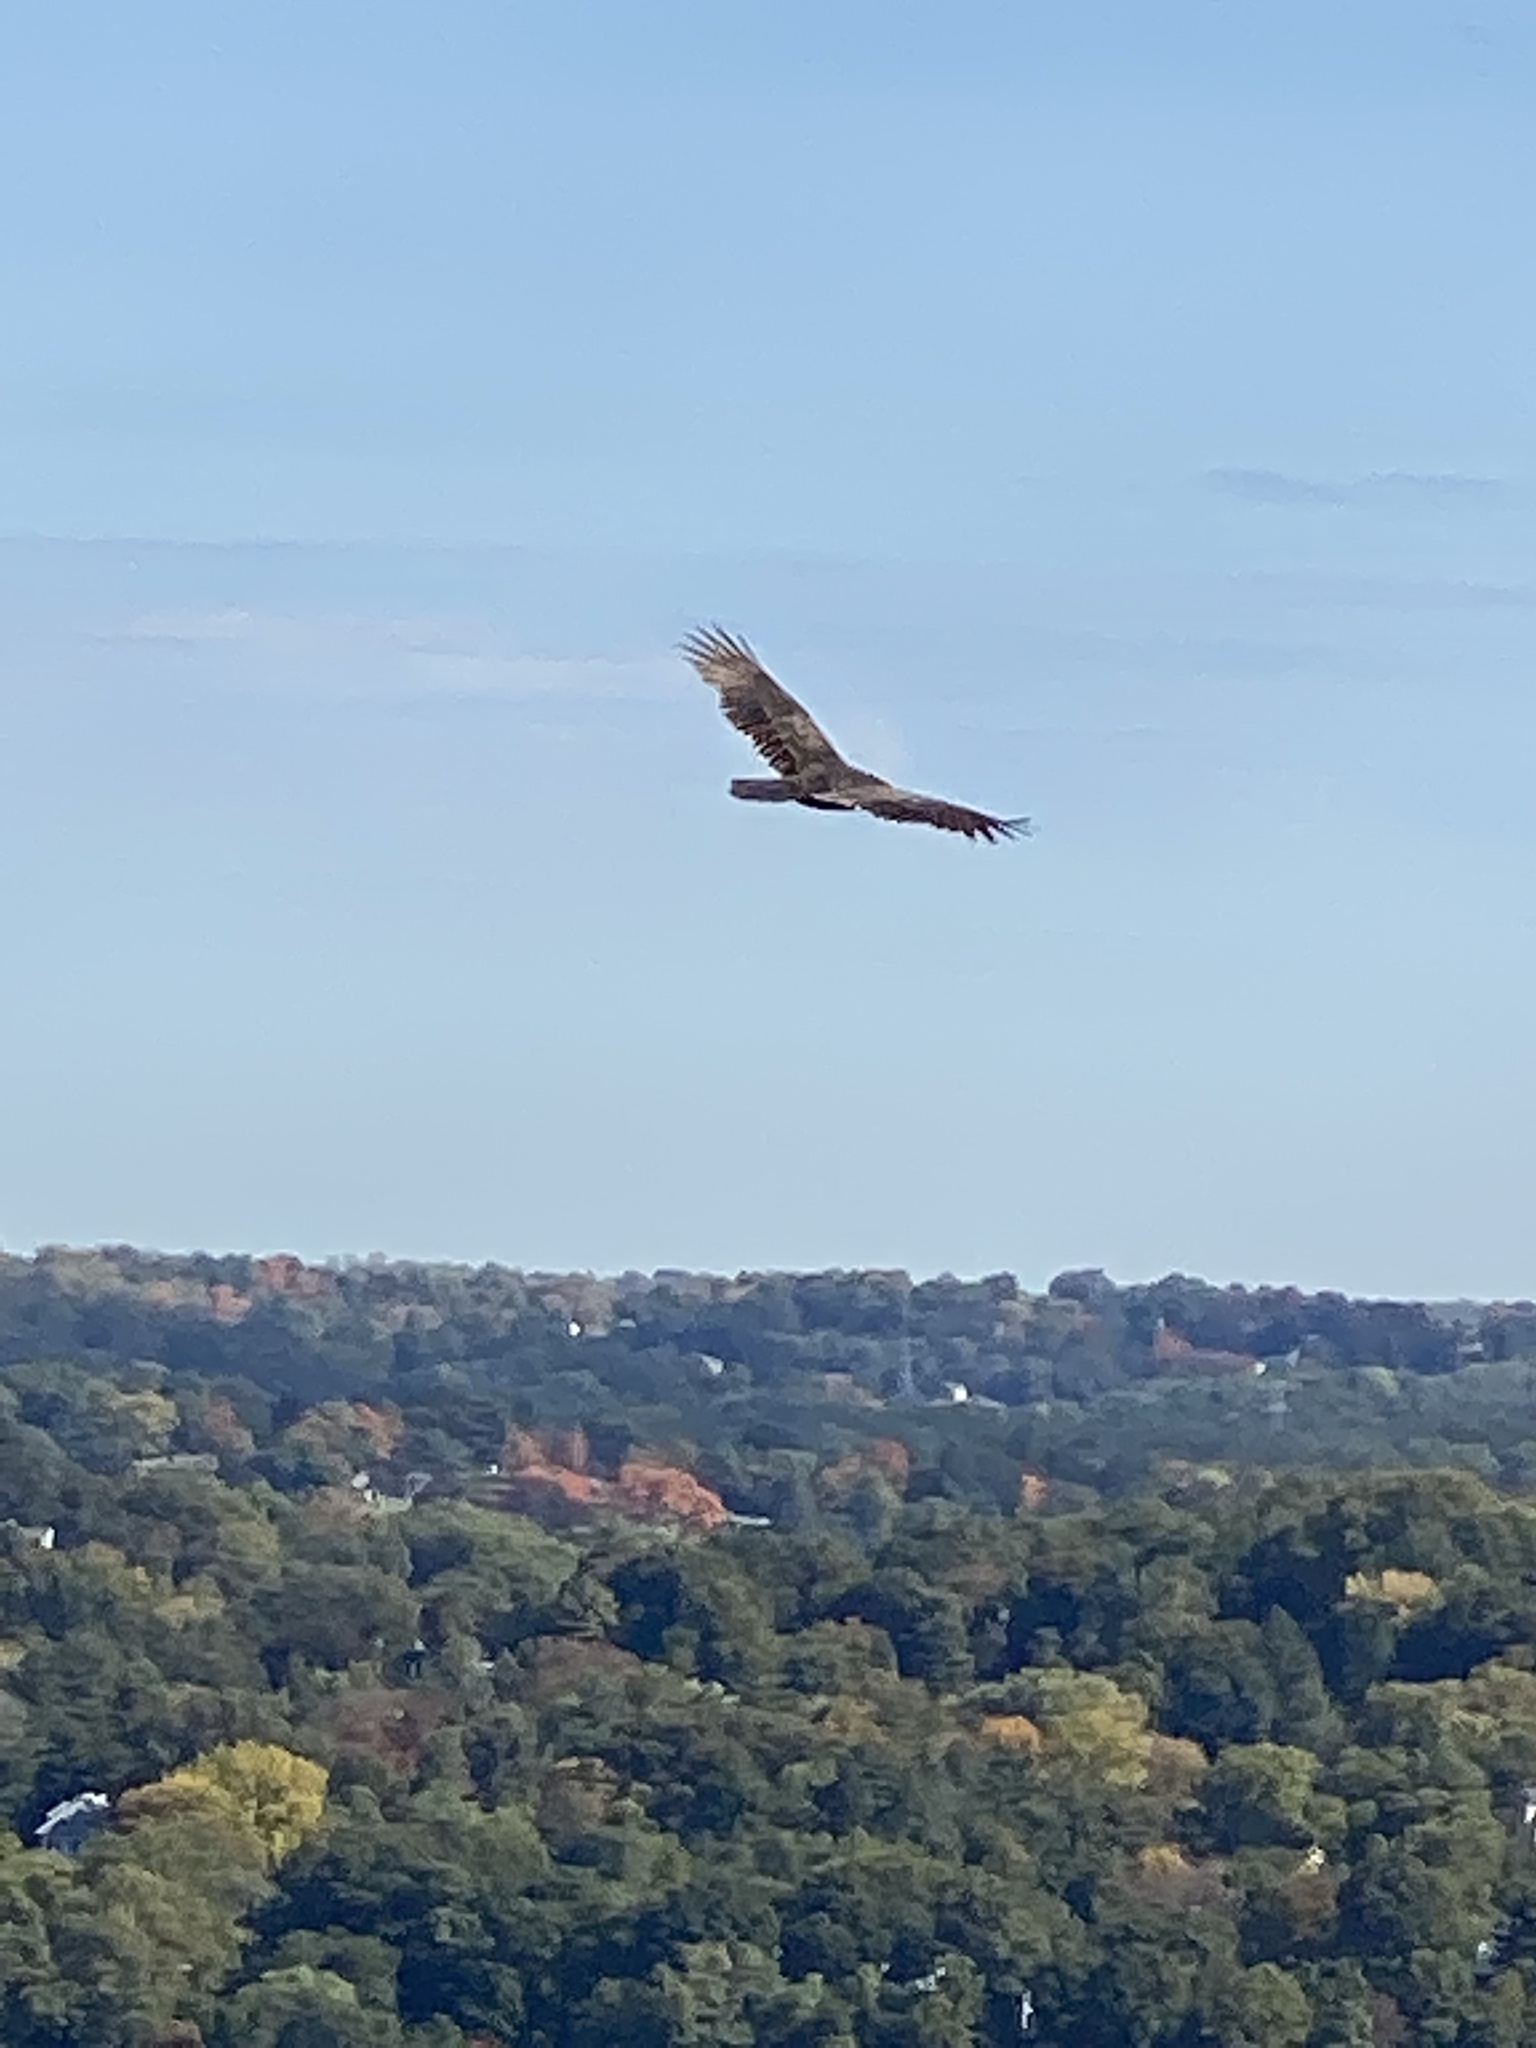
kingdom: Animalia
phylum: Chordata
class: Aves
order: Accipitriformes
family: Cathartidae
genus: Cathartes
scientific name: Cathartes aura
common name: Turkey vulture
